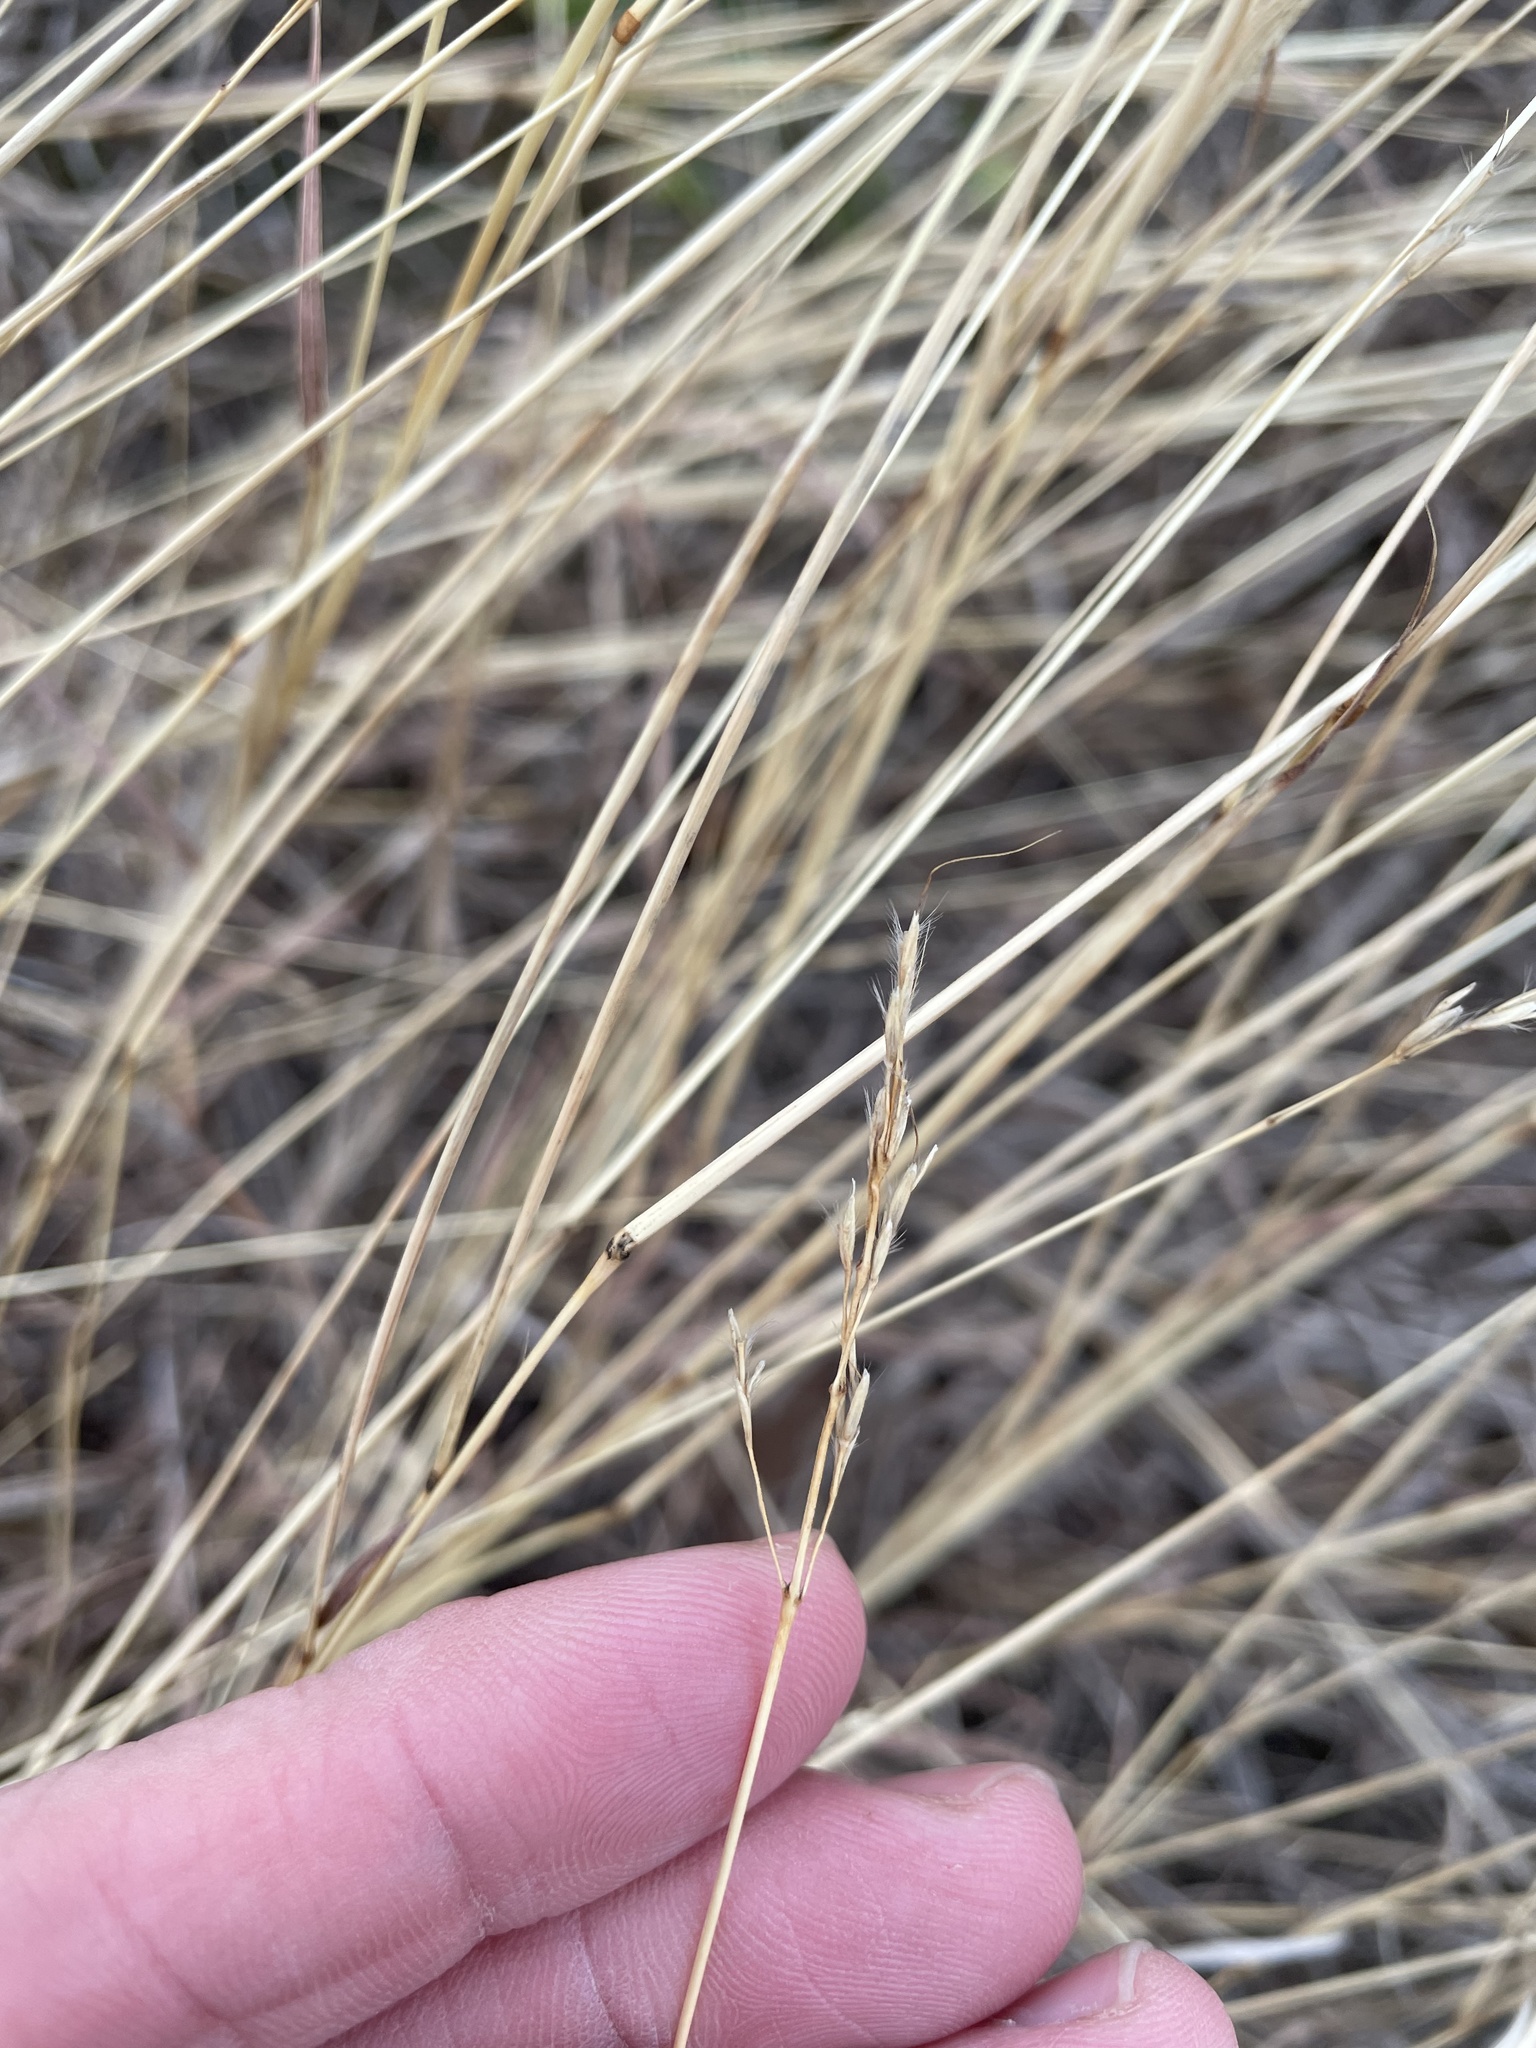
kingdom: Plantae
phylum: Tracheophyta
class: Liliopsida
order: Poales
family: Poaceae
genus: Bothriochloa
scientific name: Bothriochloa ischaemum
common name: Yellow bluestem
